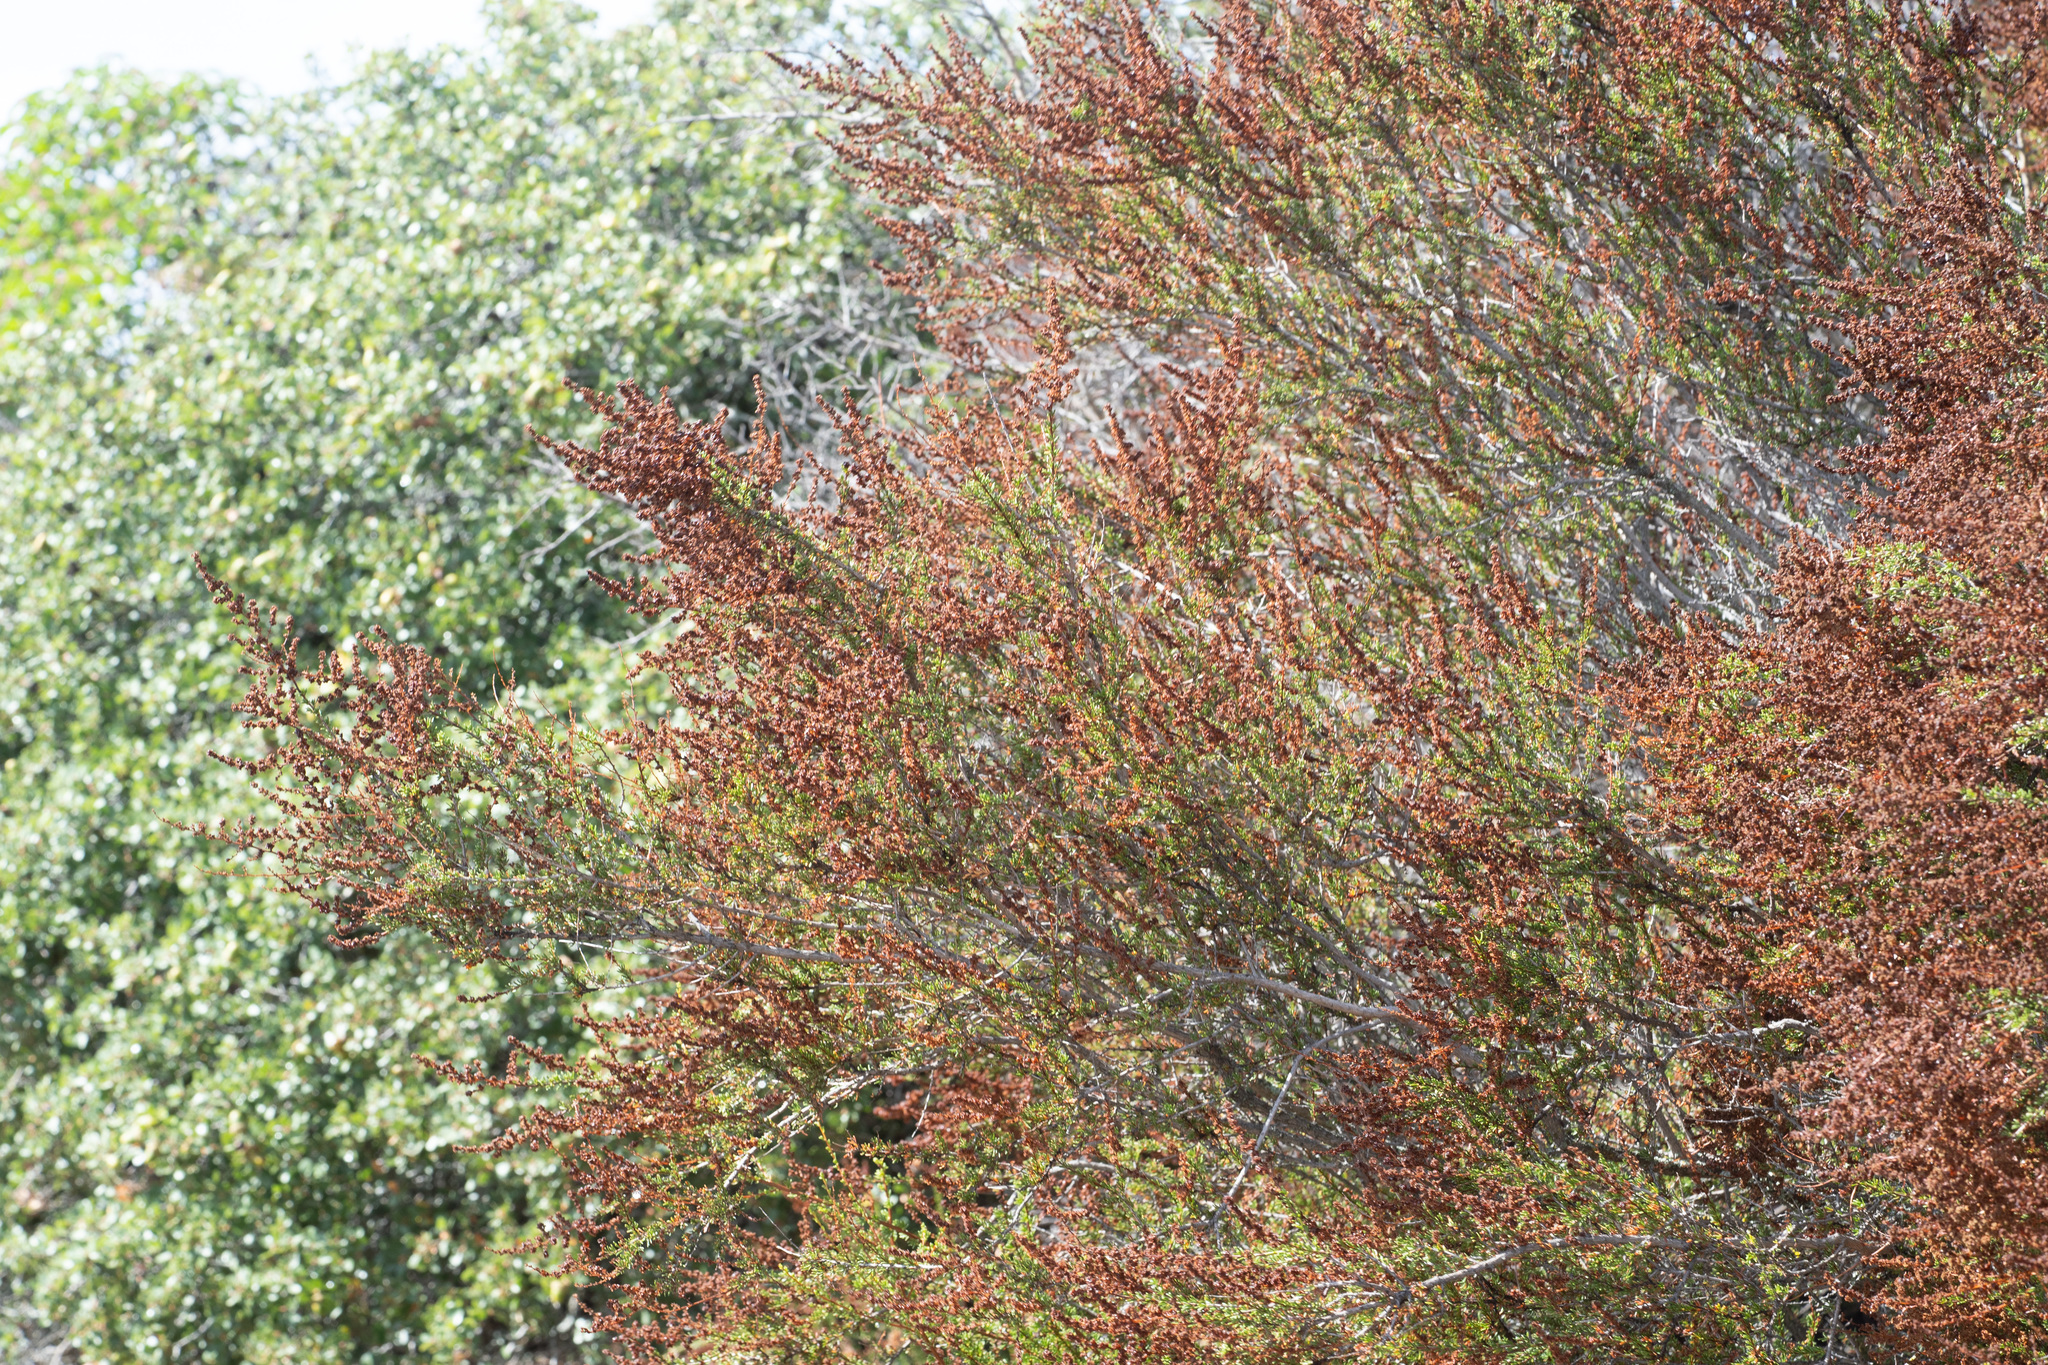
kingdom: Plantae
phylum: Tracheophyta
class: Magnoliopsida
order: Rosales
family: Rosaceae
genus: Adenostoma
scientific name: Adenostoma fasciculatum
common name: Chamise
